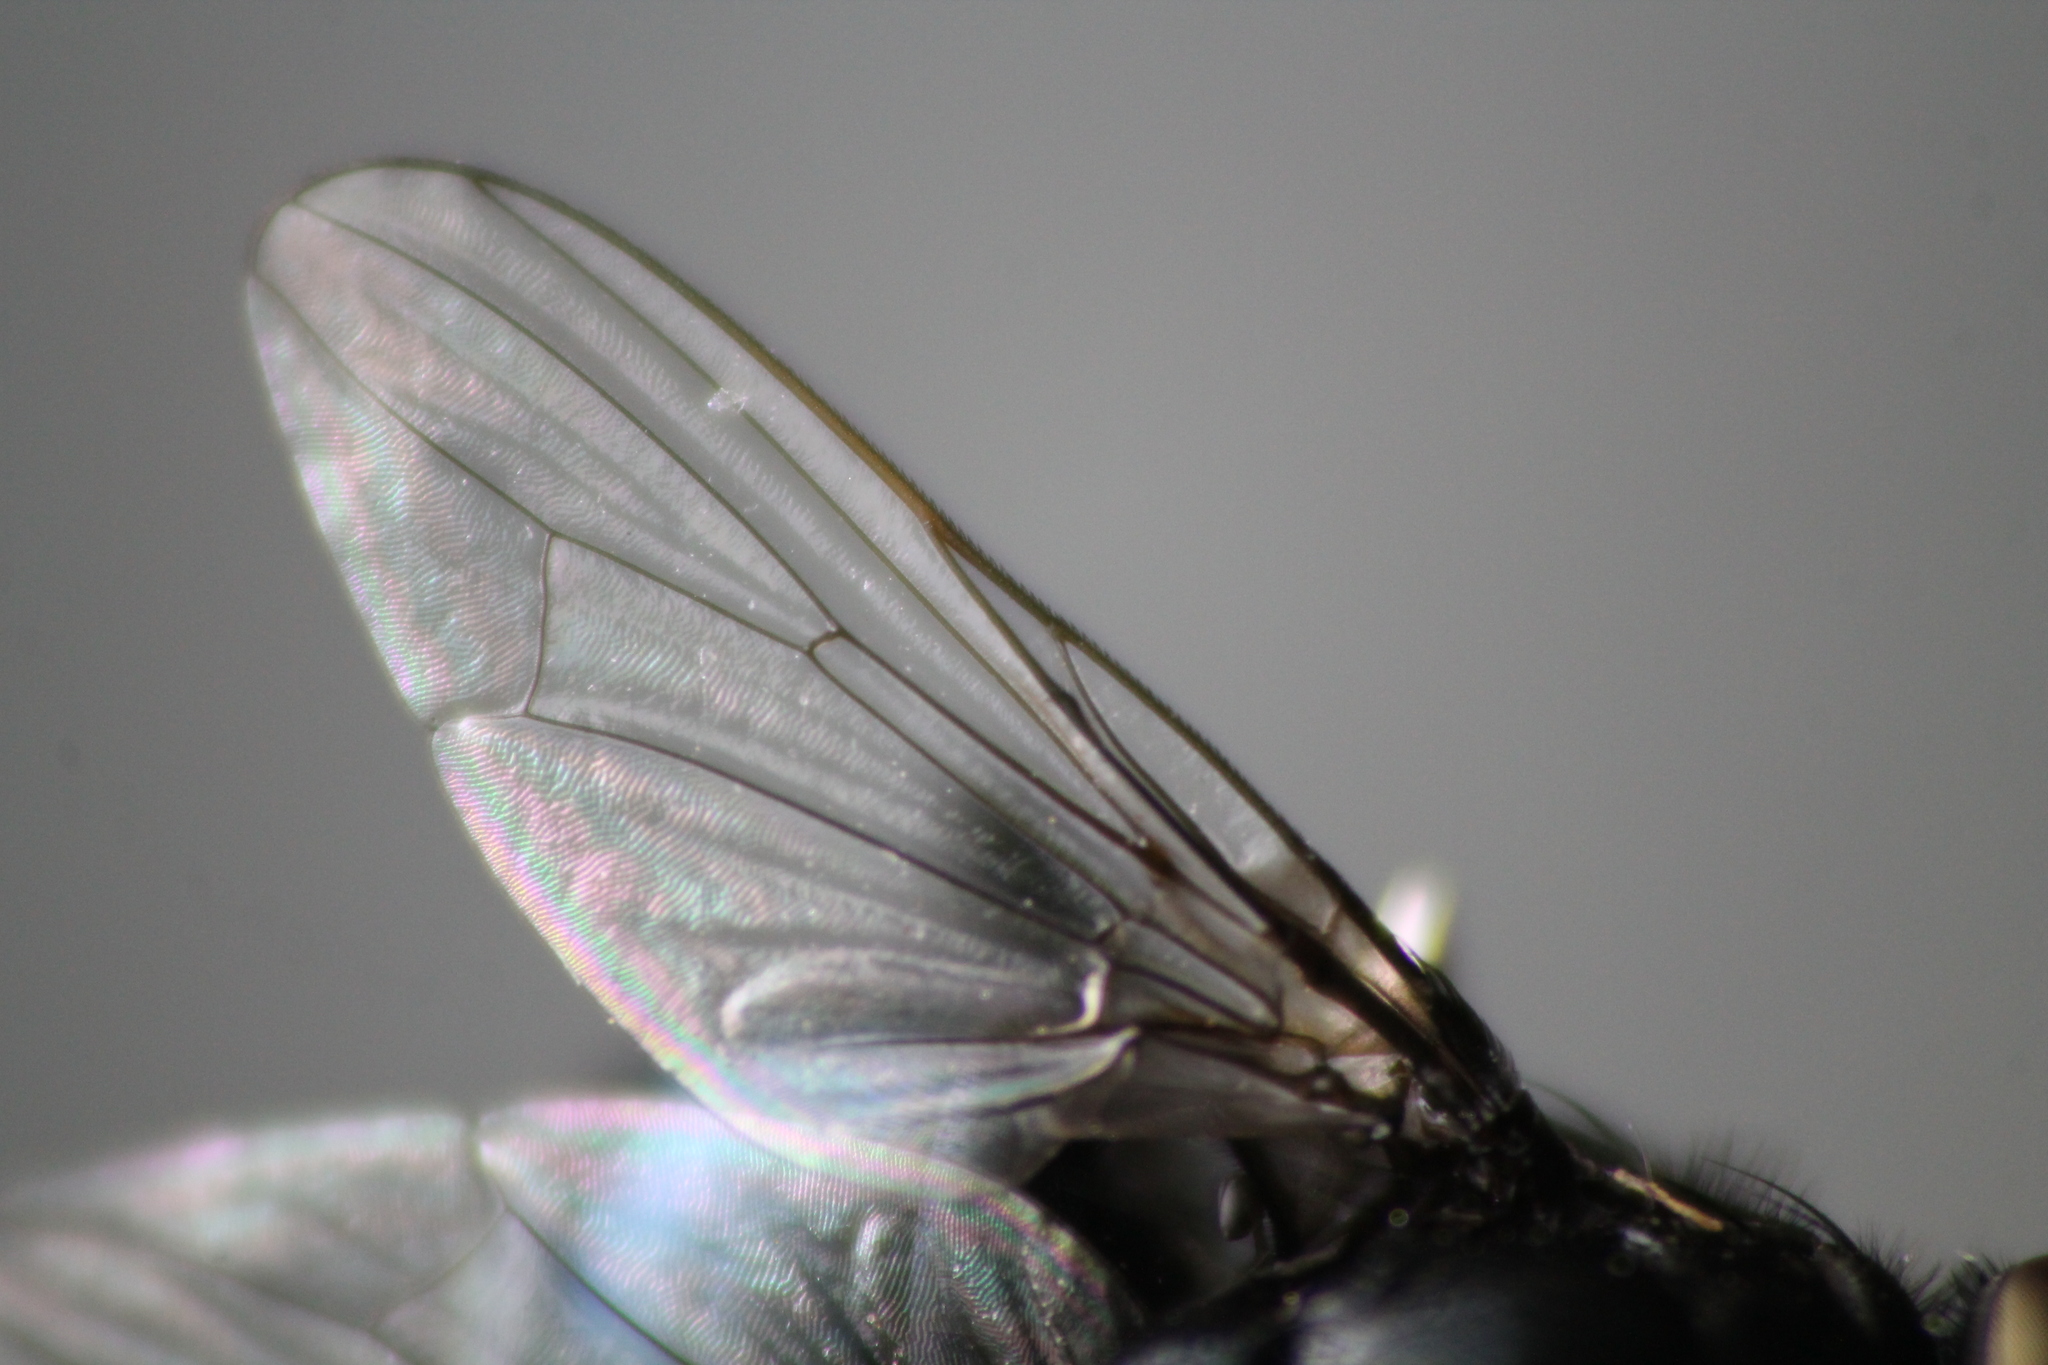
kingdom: Animalia
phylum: Arthropoda
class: Insecta
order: Diptera
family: Muscidae
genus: Australophyra
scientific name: Australophyra rostrata
